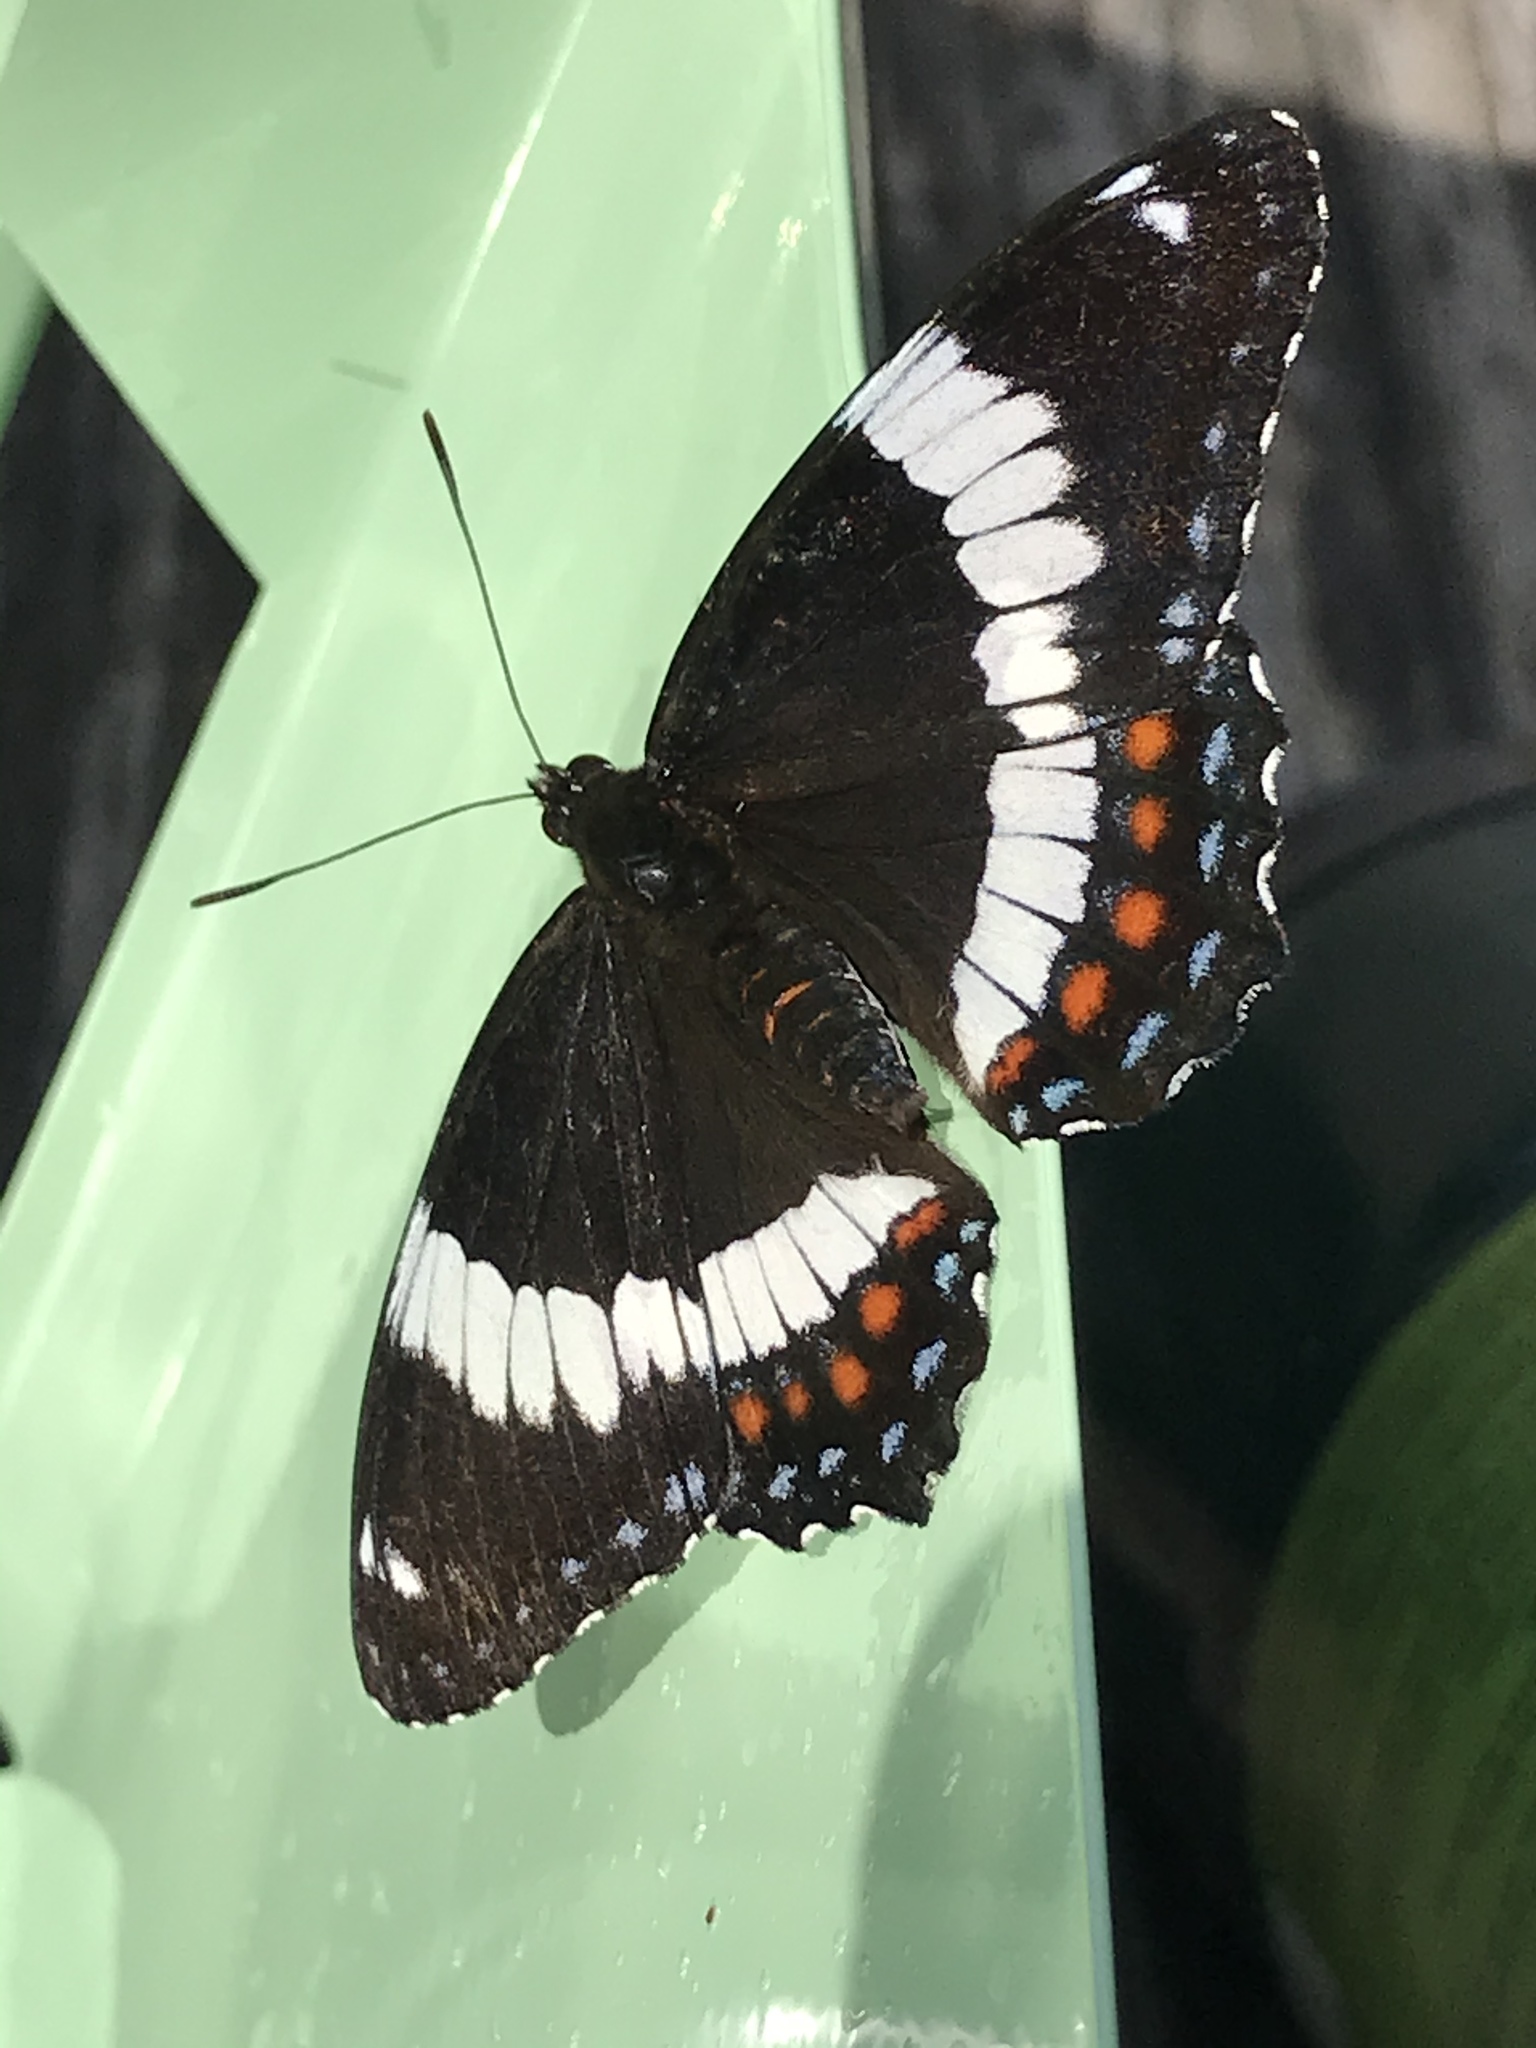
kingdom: Animalia
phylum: Arthropoda
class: Insecta
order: Lepidoptera
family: Nymphalidae
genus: Limenitis
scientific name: Limenitis arthemis
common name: Red-spotted admiral
